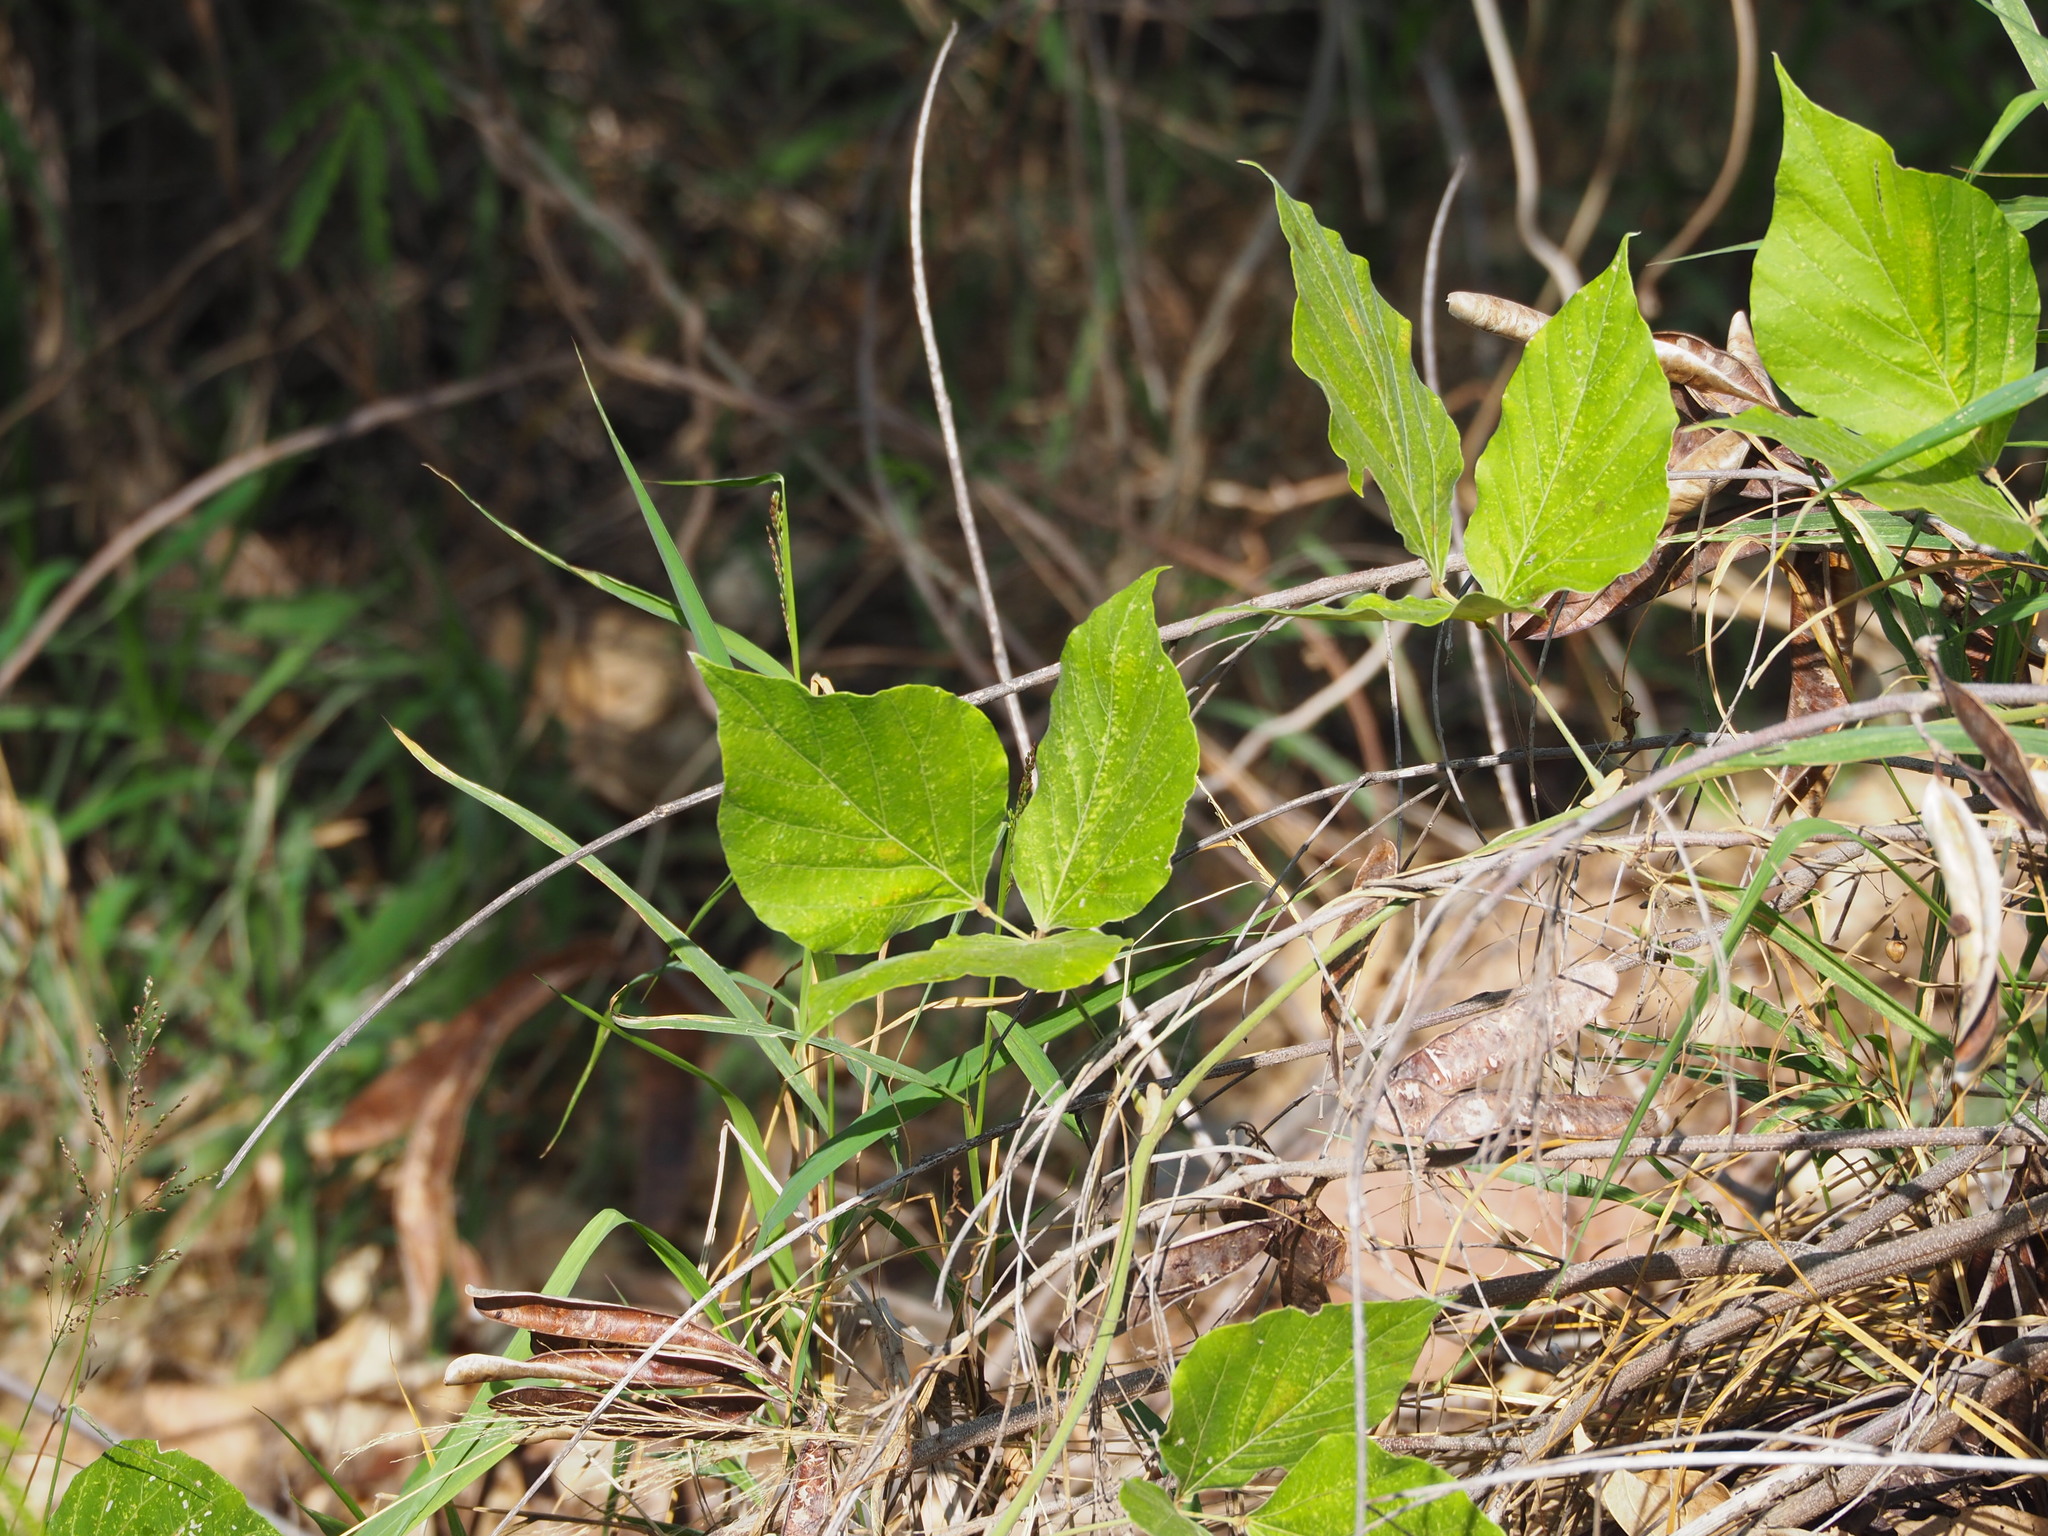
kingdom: Plantae
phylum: Tracheophyta
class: Magnoliopsida
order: Fabales
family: Fabaceae
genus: Pueraria
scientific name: Pueraria montana
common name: Kudzu
